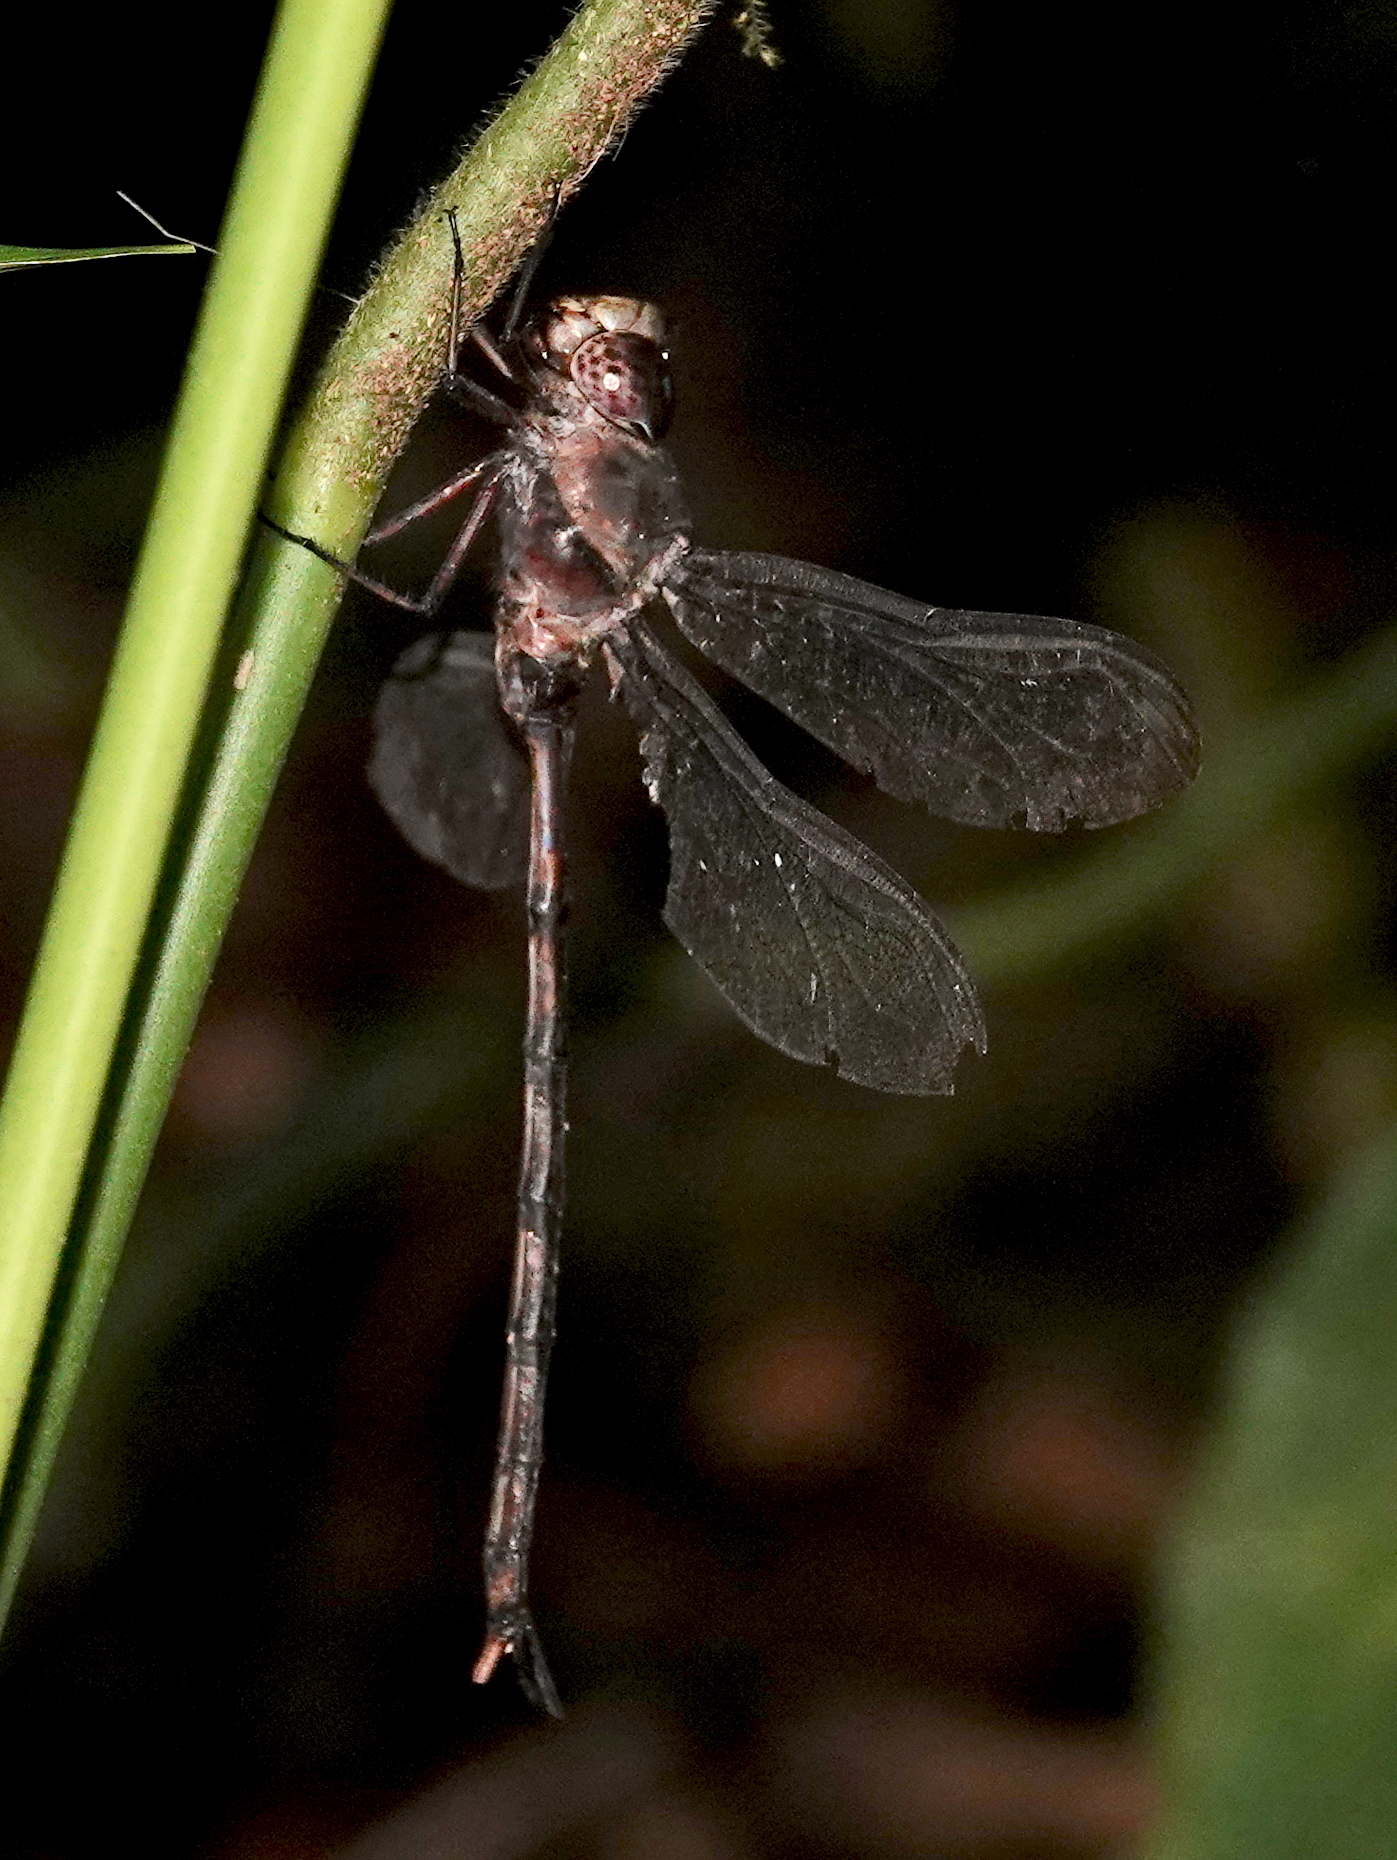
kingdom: Animalia
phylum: Arthropoda
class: Insecta
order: Odonata
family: Aeshnidae
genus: Gynacantha
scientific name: Gynacantha membranalis
